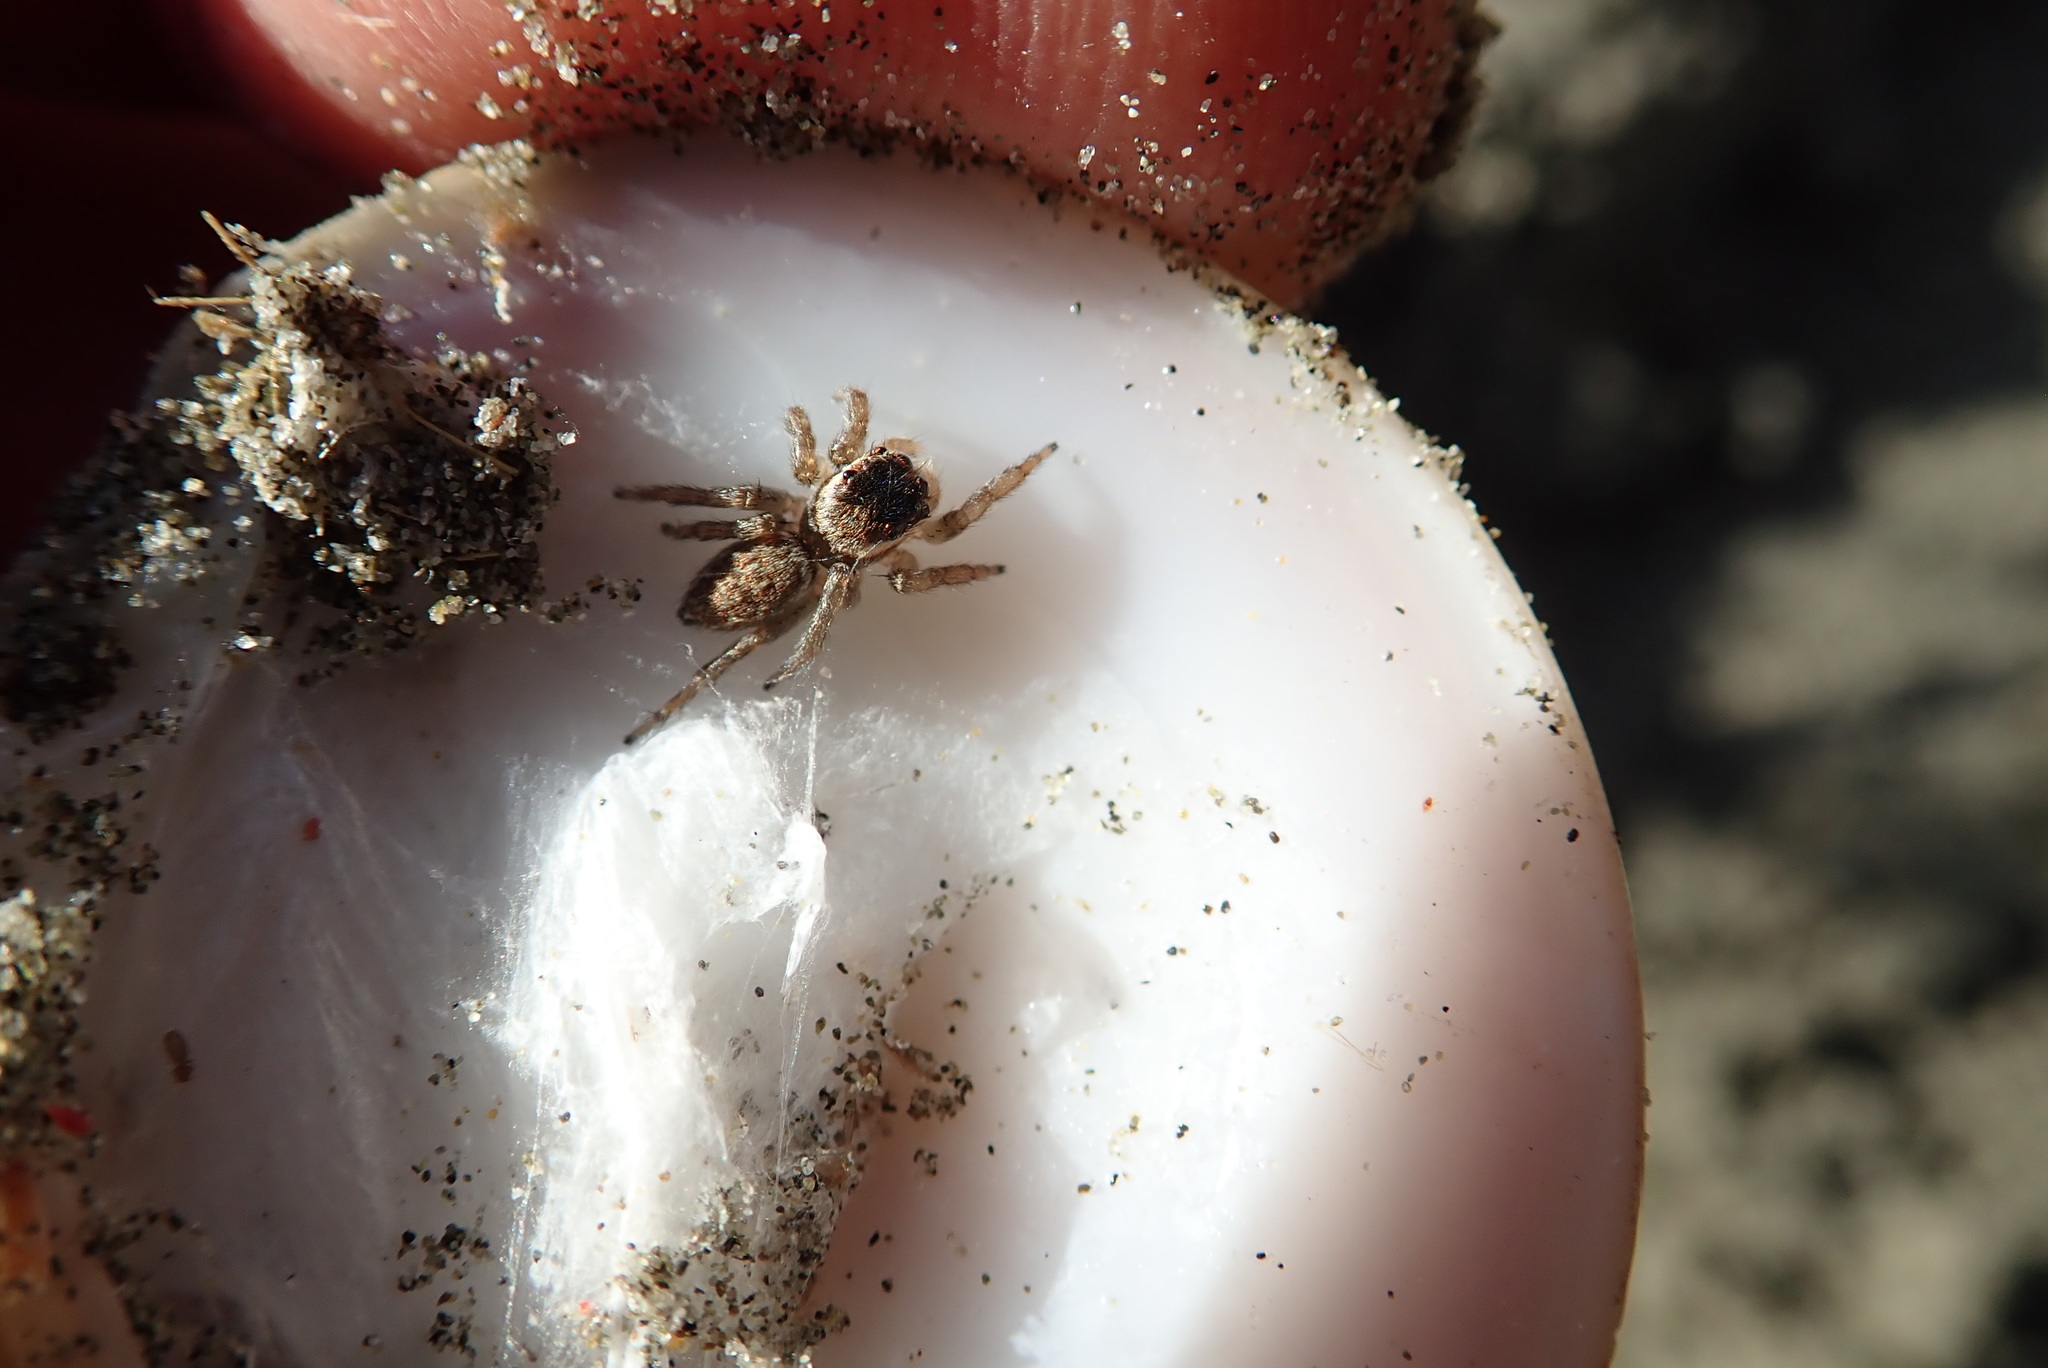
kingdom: Animalia
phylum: Arthropoda
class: Arachnida
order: Araneae
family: Salticidae
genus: Maratus
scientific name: Maratus griseus
